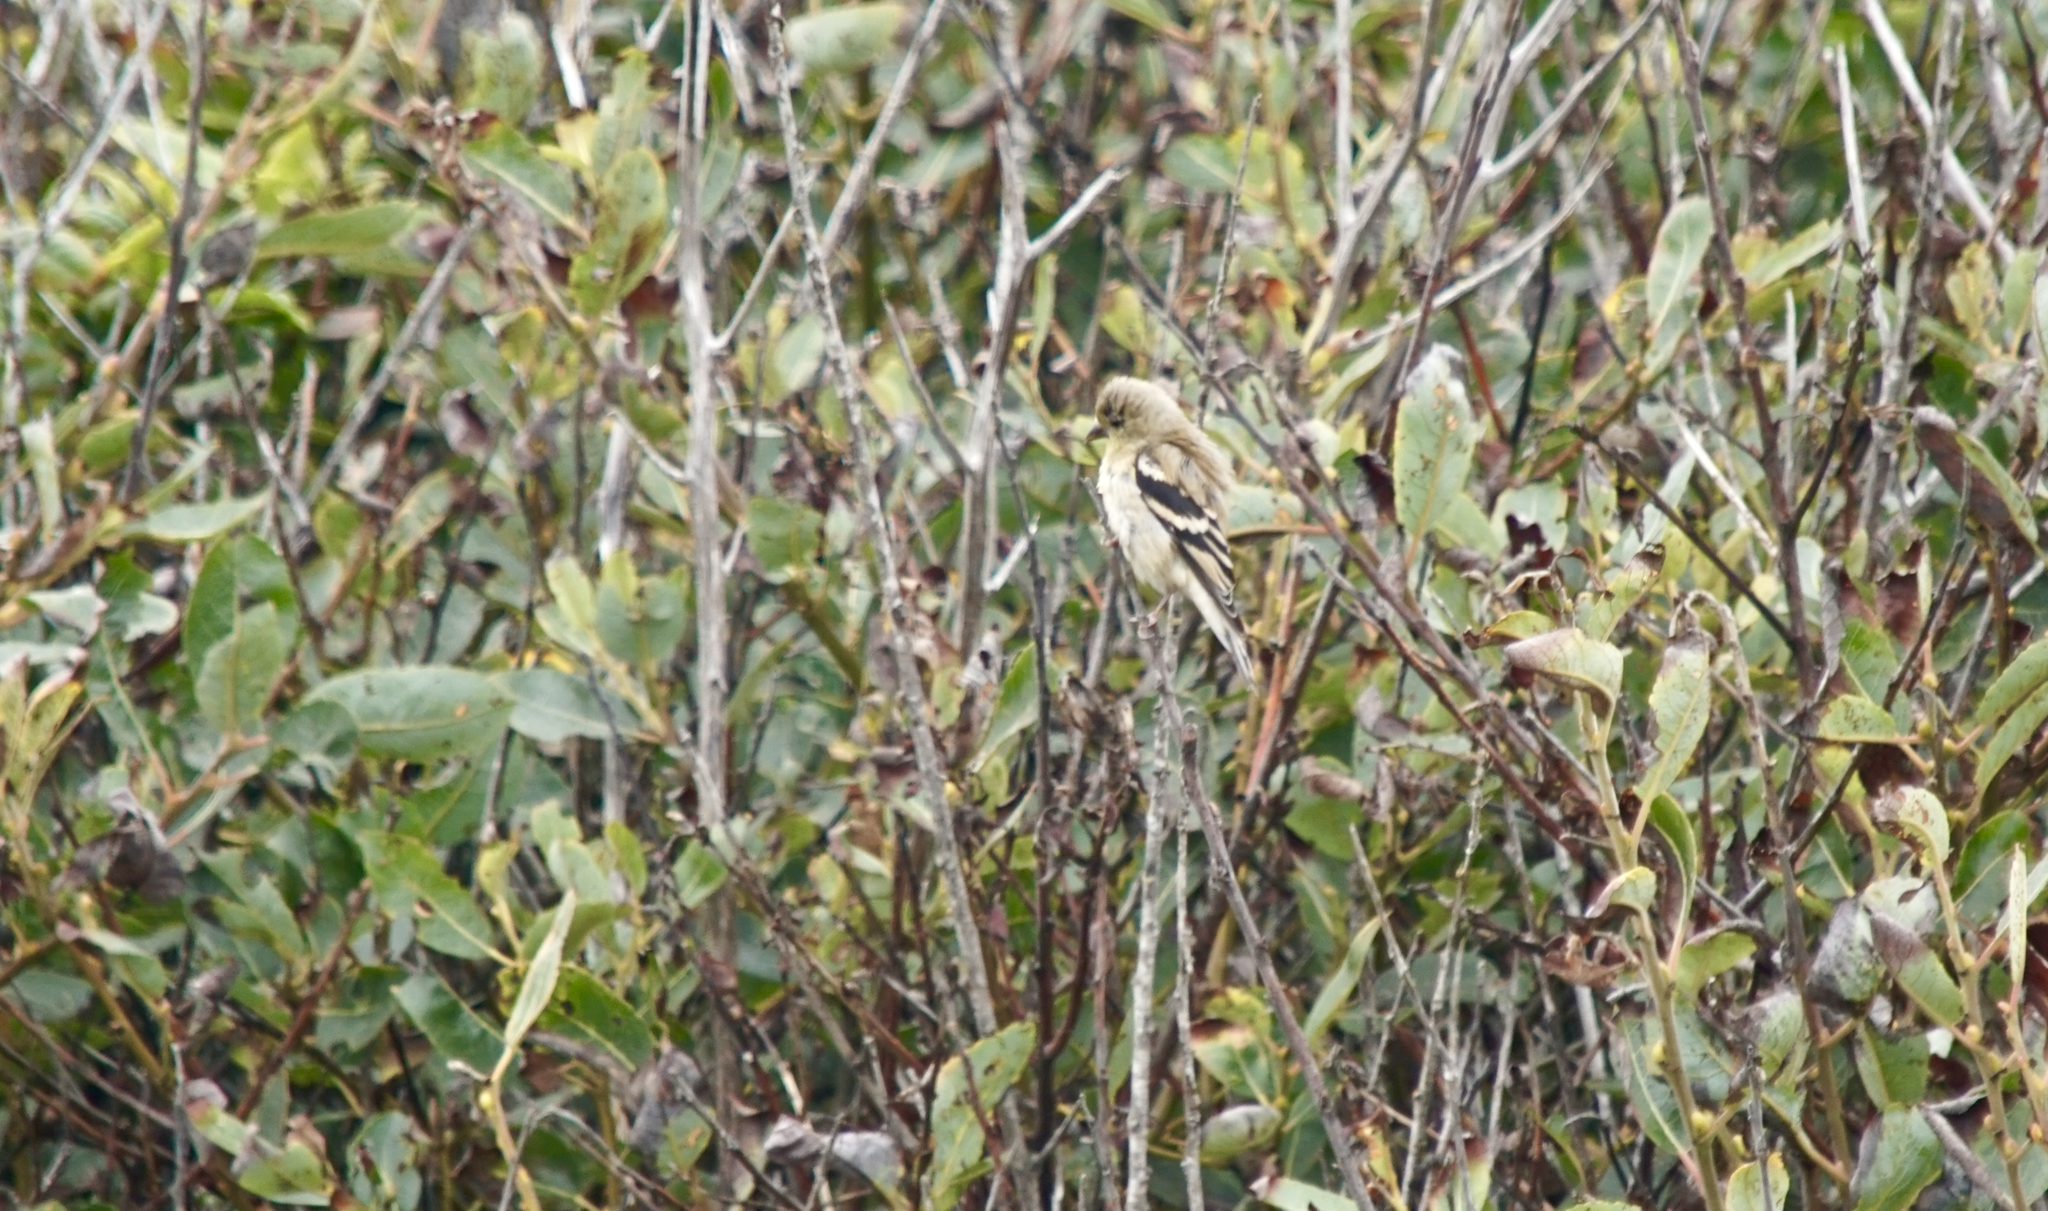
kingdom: Animalia
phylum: Chordata
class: Aves
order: Passeriformes
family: Fringillidae
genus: Spinus
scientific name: Spinus tristis
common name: American goldfinch
